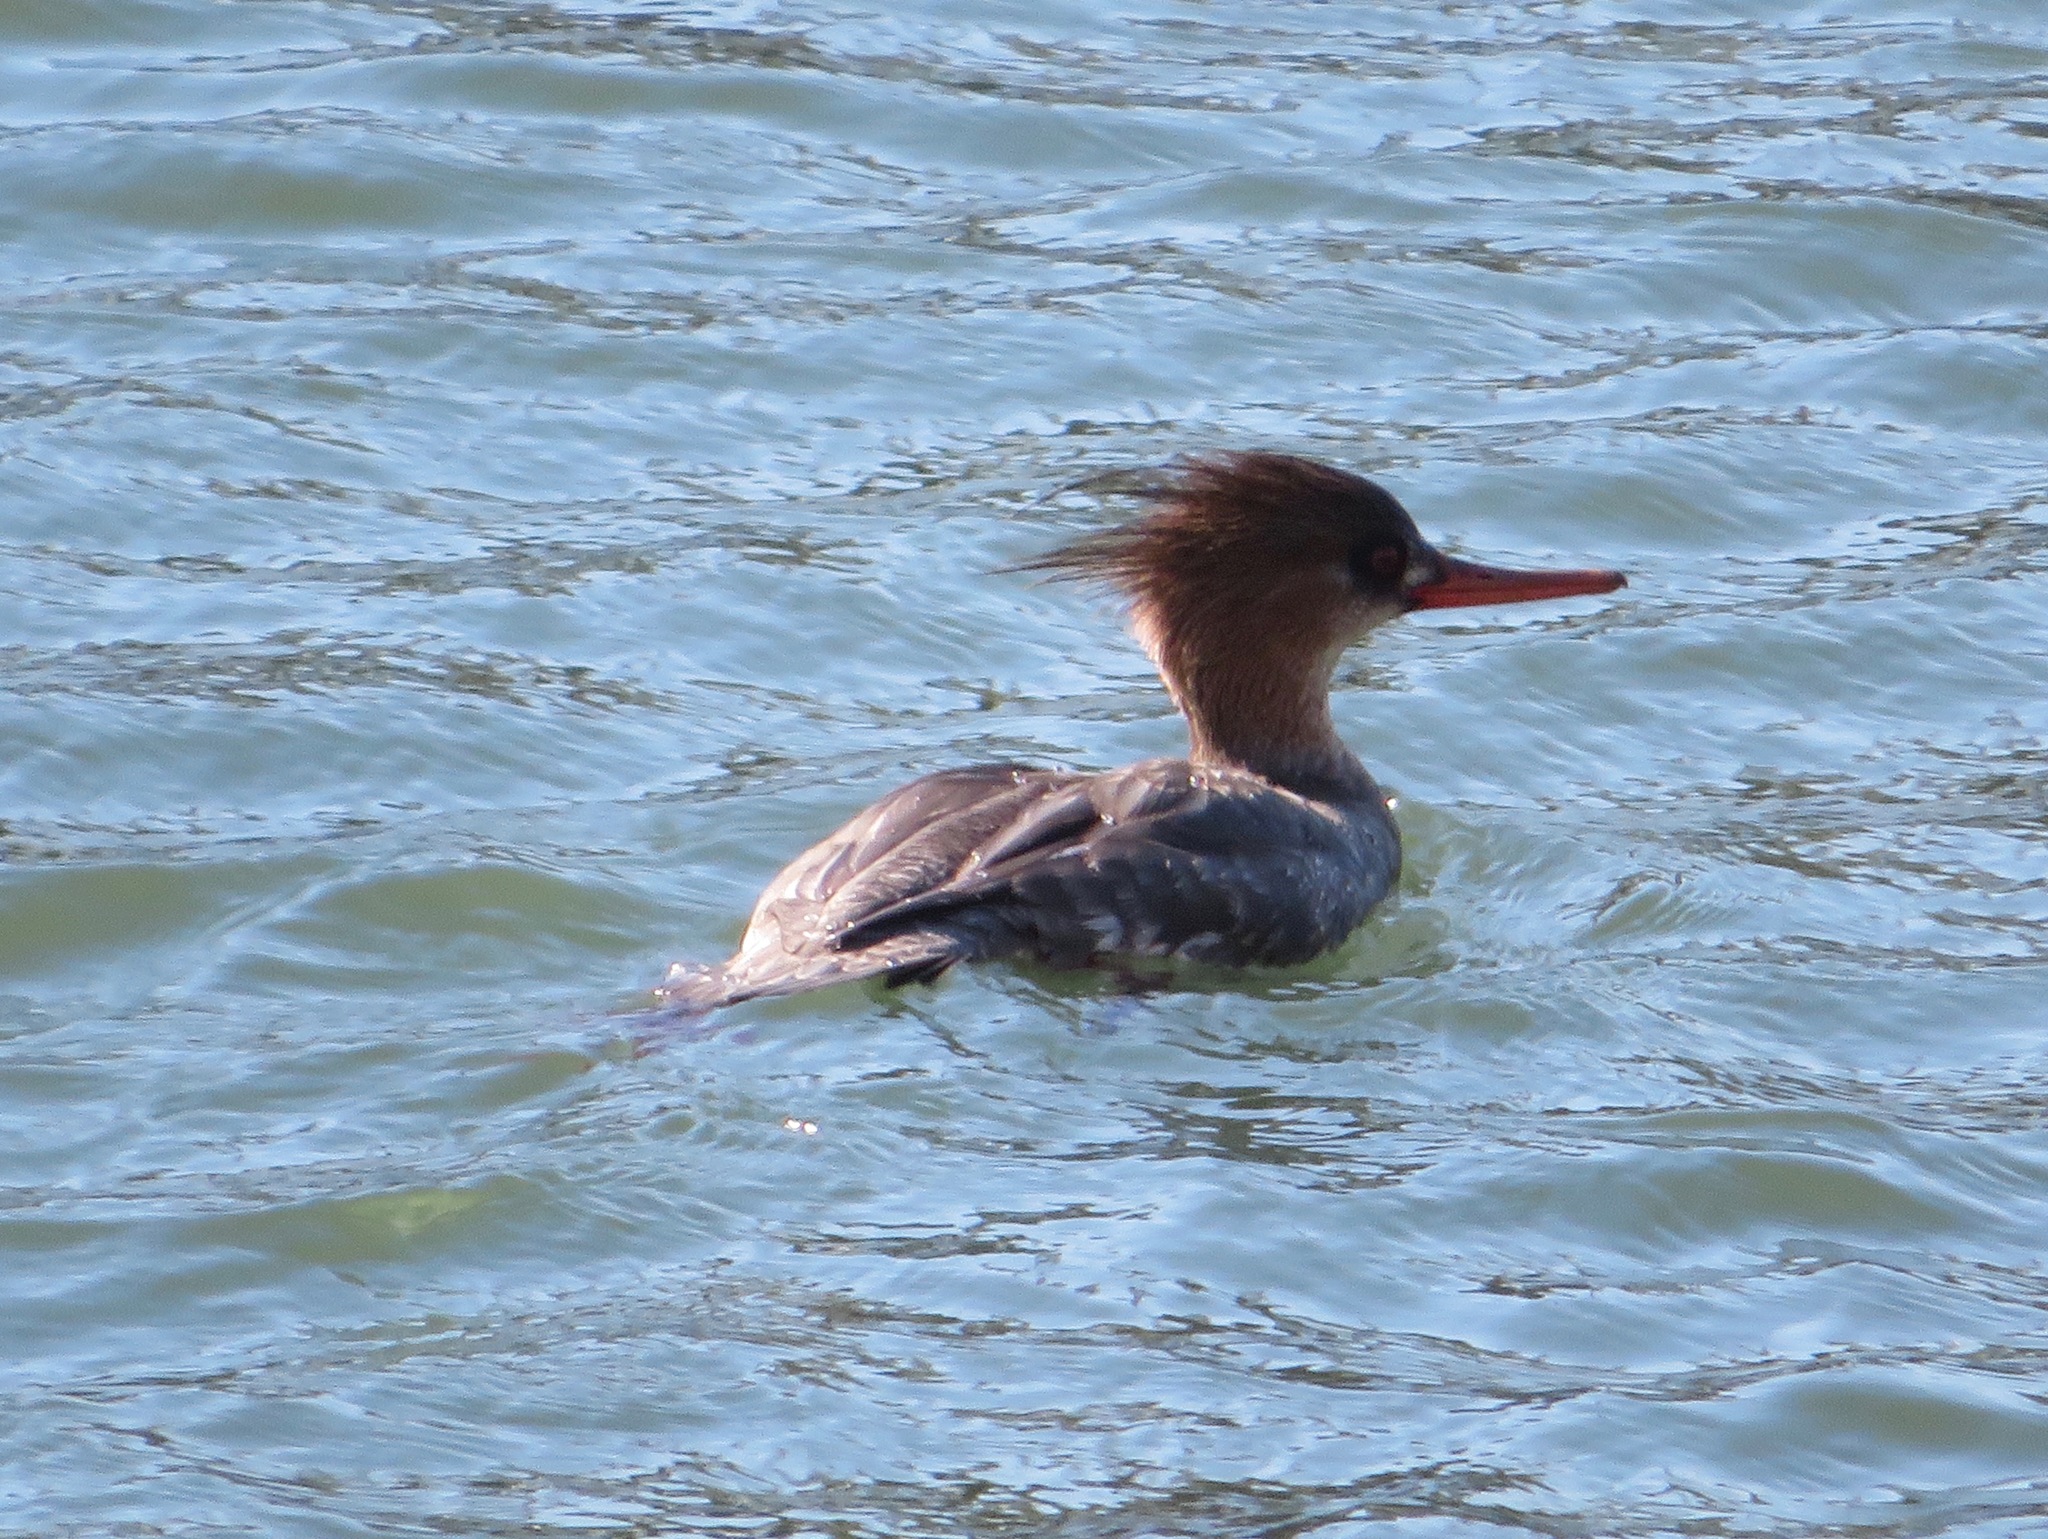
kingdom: Animalia
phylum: Chordata
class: Aves
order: Anseriformes
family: Anatidae
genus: Mergus
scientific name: Mergus serrator
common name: Red-breasted merganser
